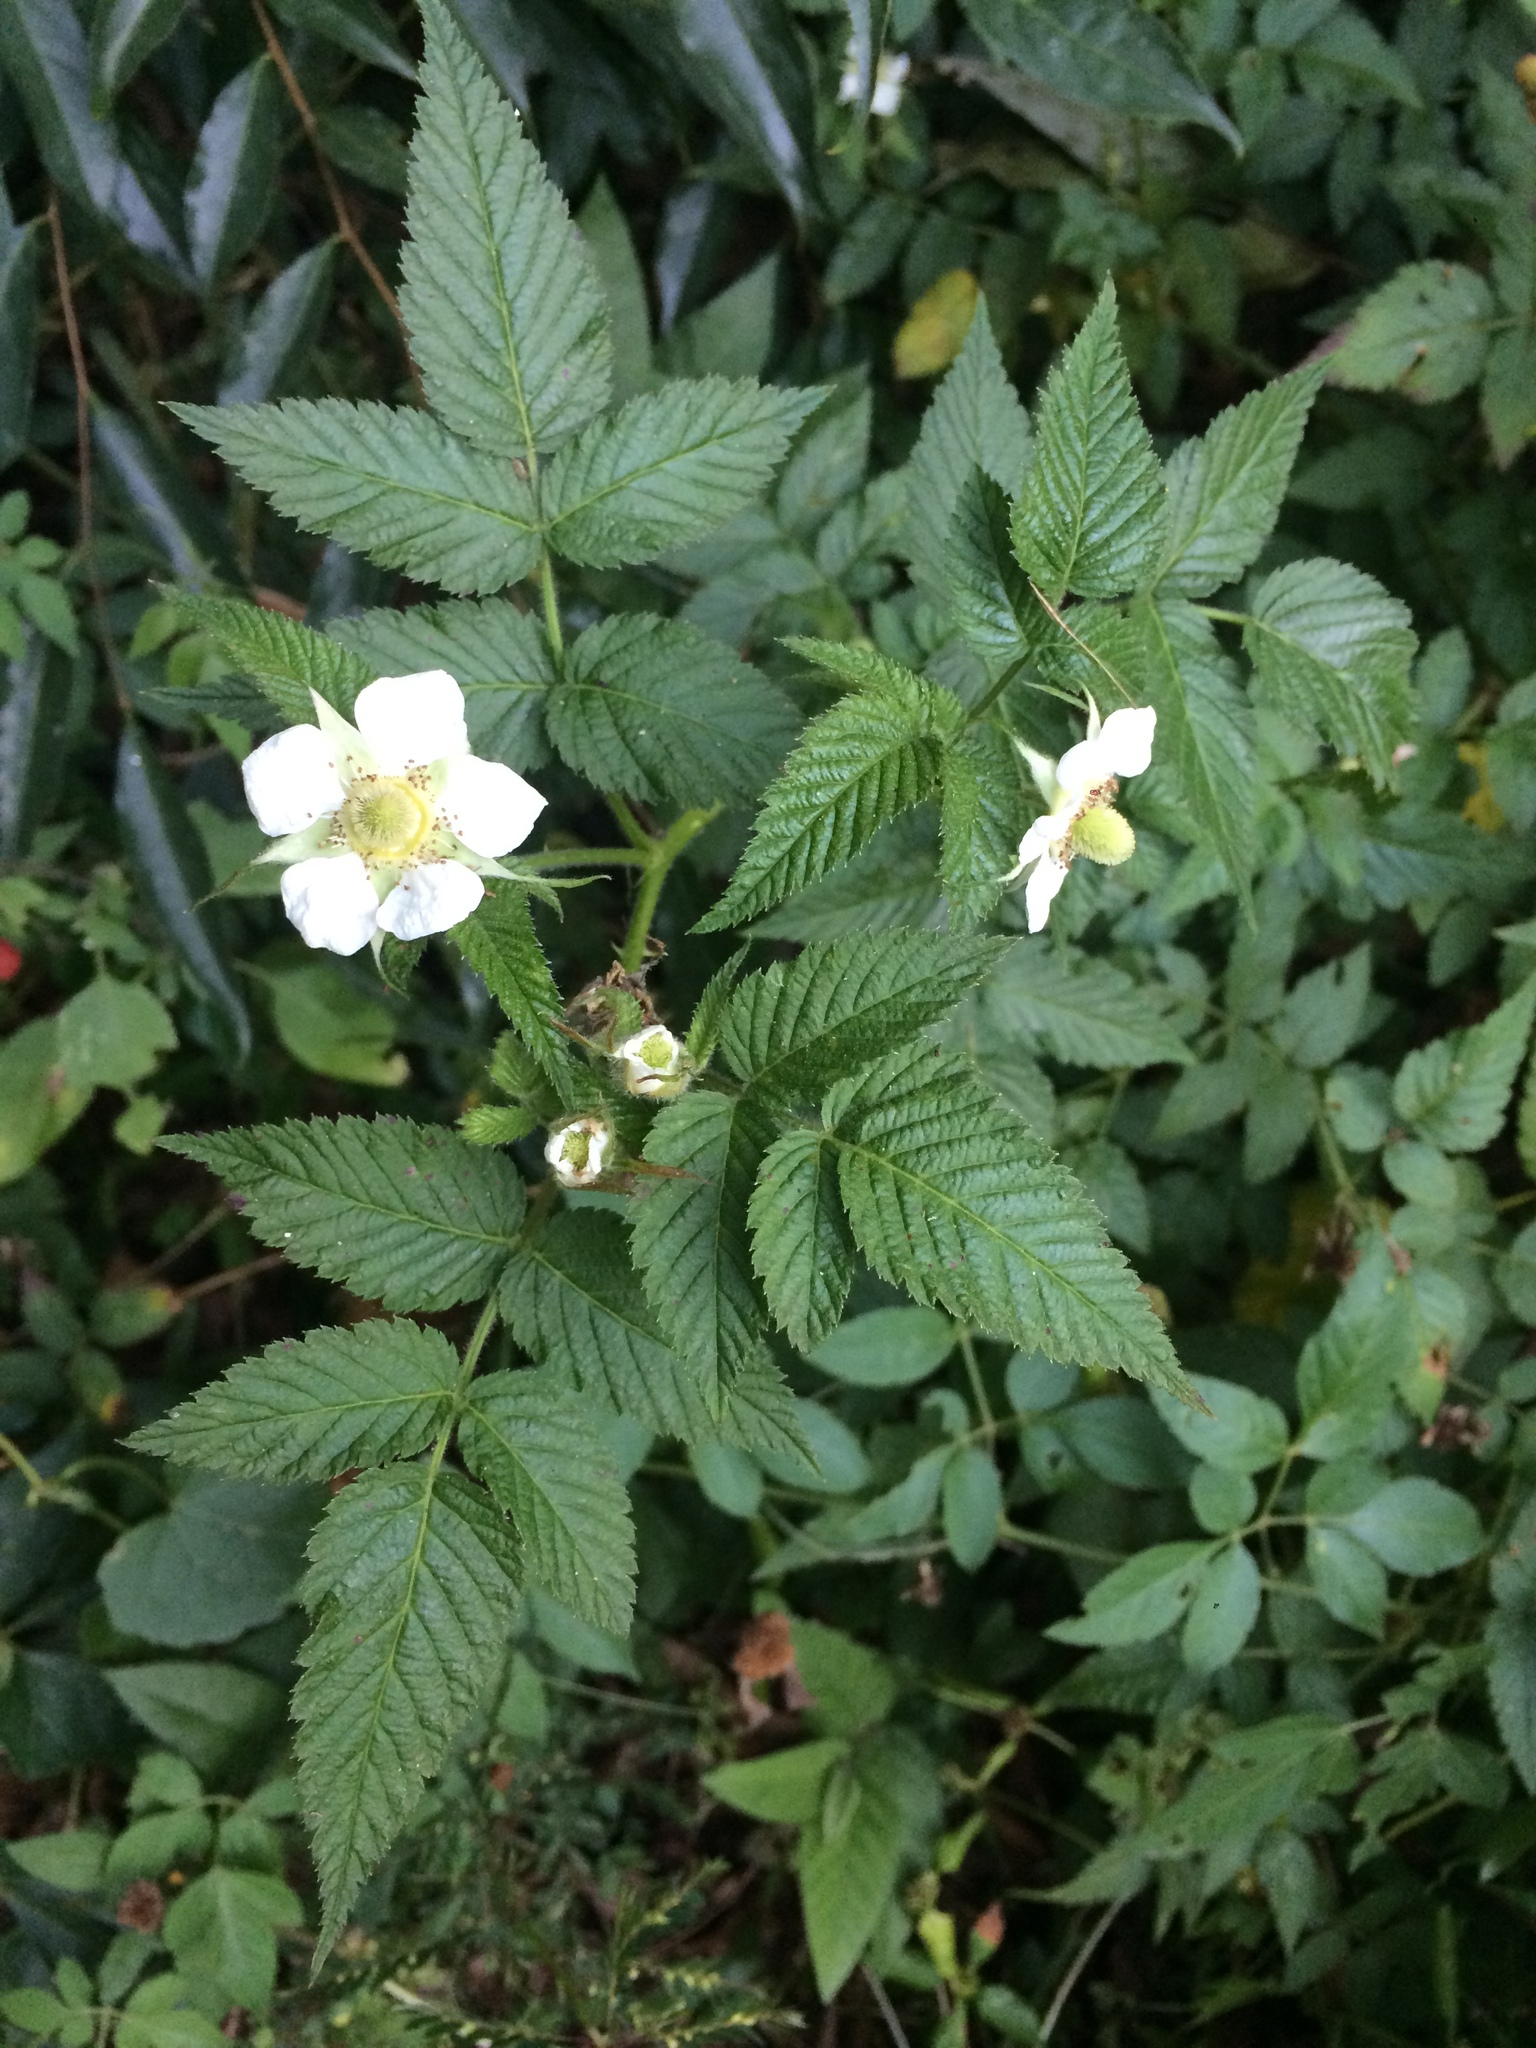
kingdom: Plantae
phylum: Tracheophyta
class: Magnoliopsida
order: Rosales
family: Rosaceae
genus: Rubus
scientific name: Rubus rosifolius
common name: Roseleaf raspberry
